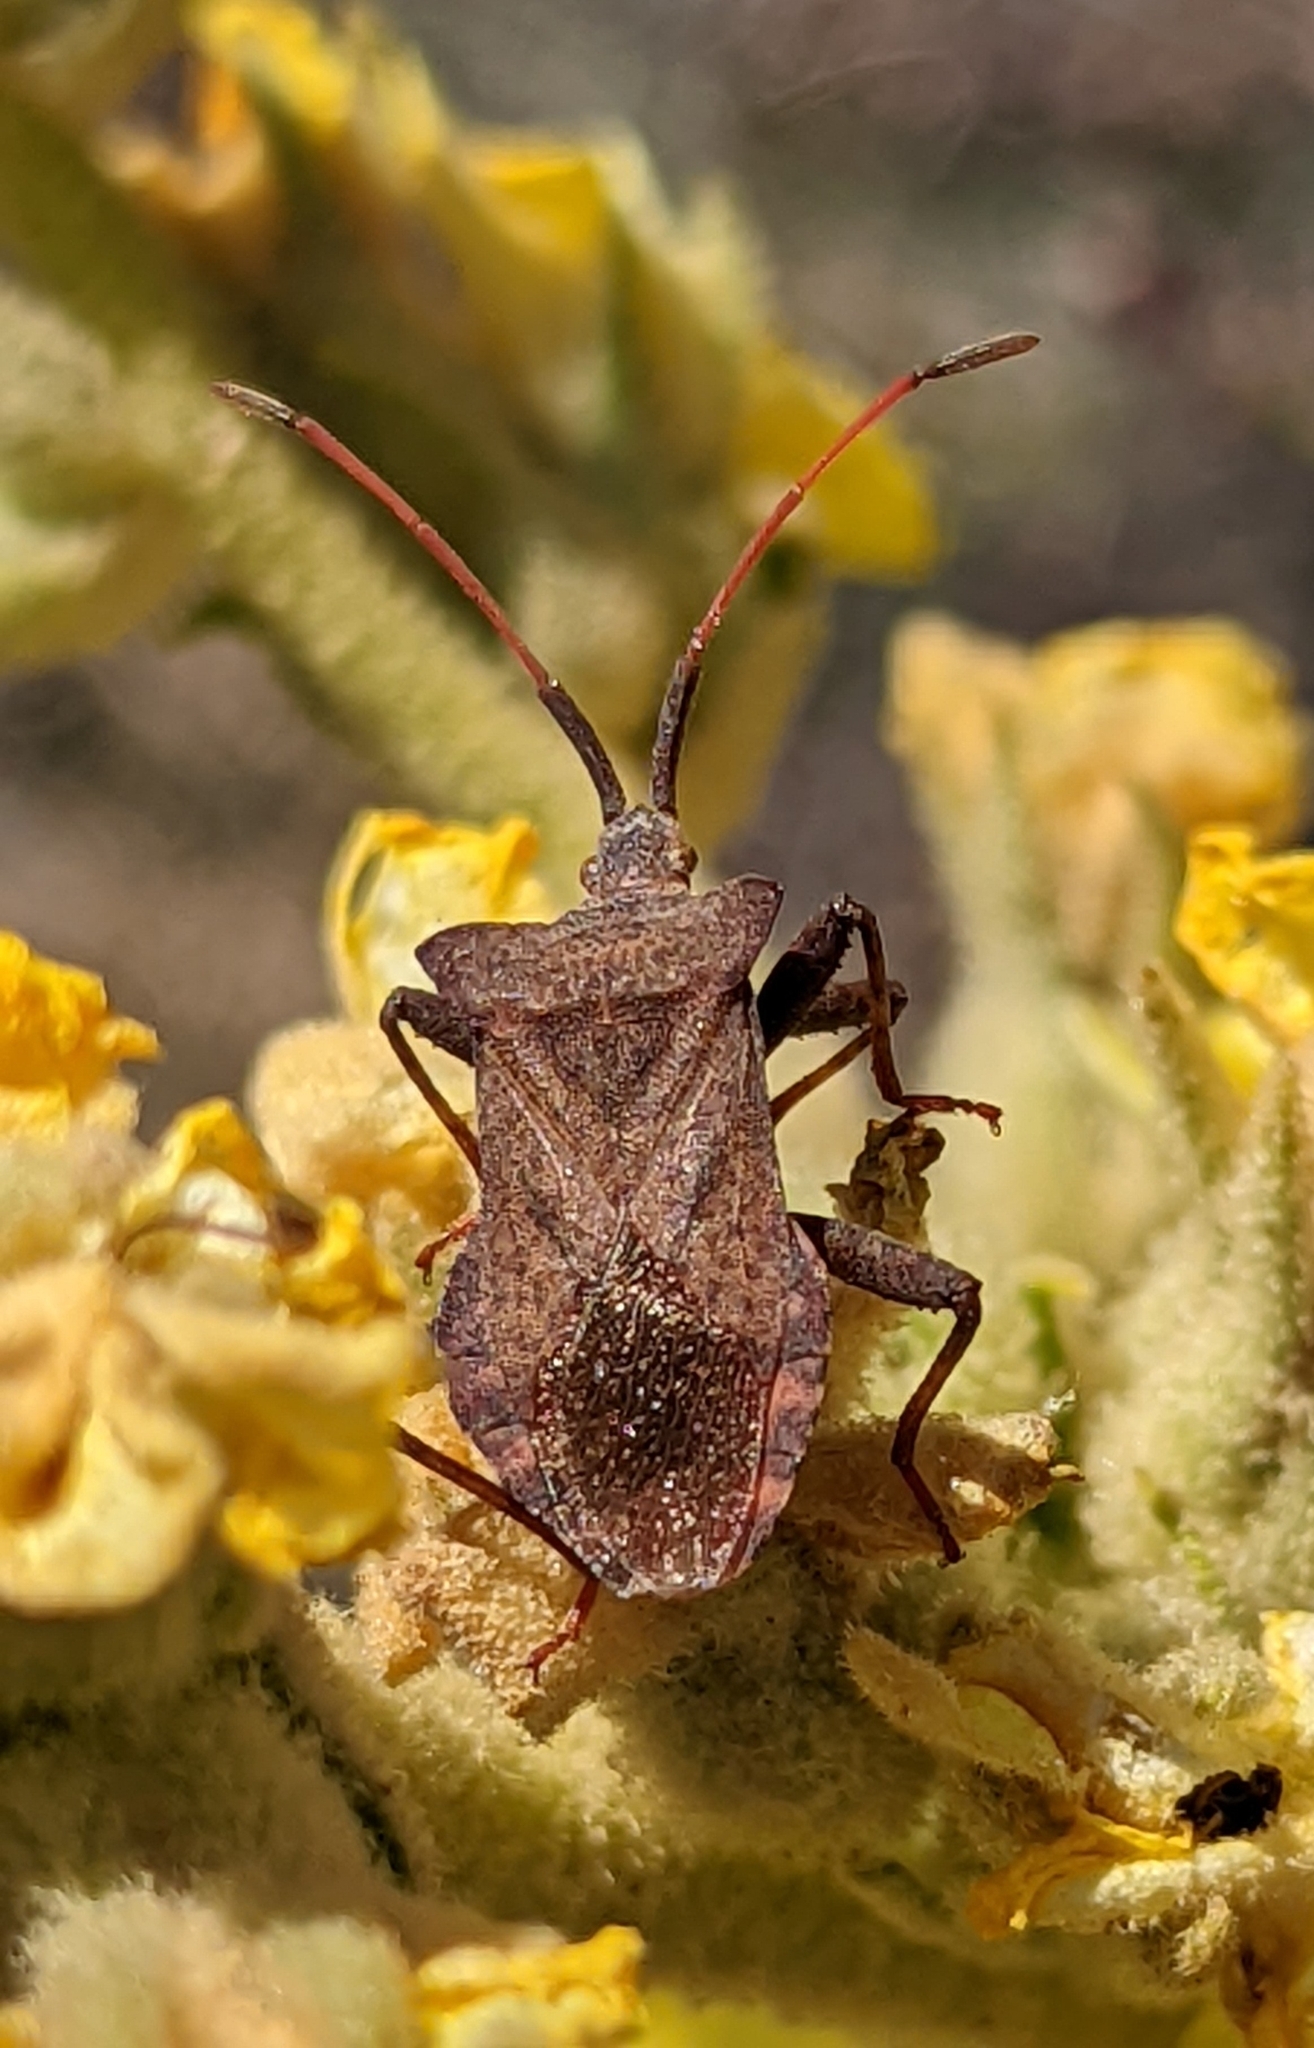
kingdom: Animalia
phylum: Arthropoda
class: Insecta
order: Hemiptera
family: Coreidae
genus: Coreus
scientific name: Coreus marginatus
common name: Dock bug
